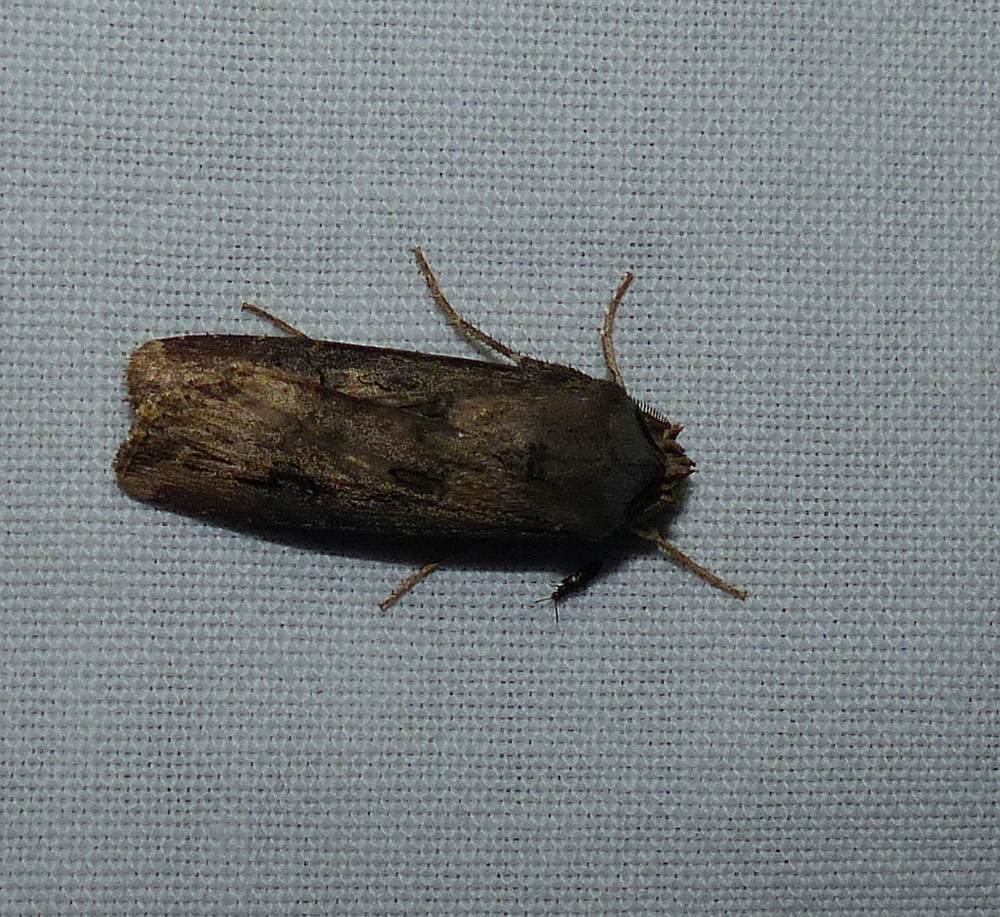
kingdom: Animalia
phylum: Arthropoda
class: Insecta
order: Lepidoptera
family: Noctuidae
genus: Agrotis
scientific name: Agrotis ipsilon
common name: Dark sword-grass
